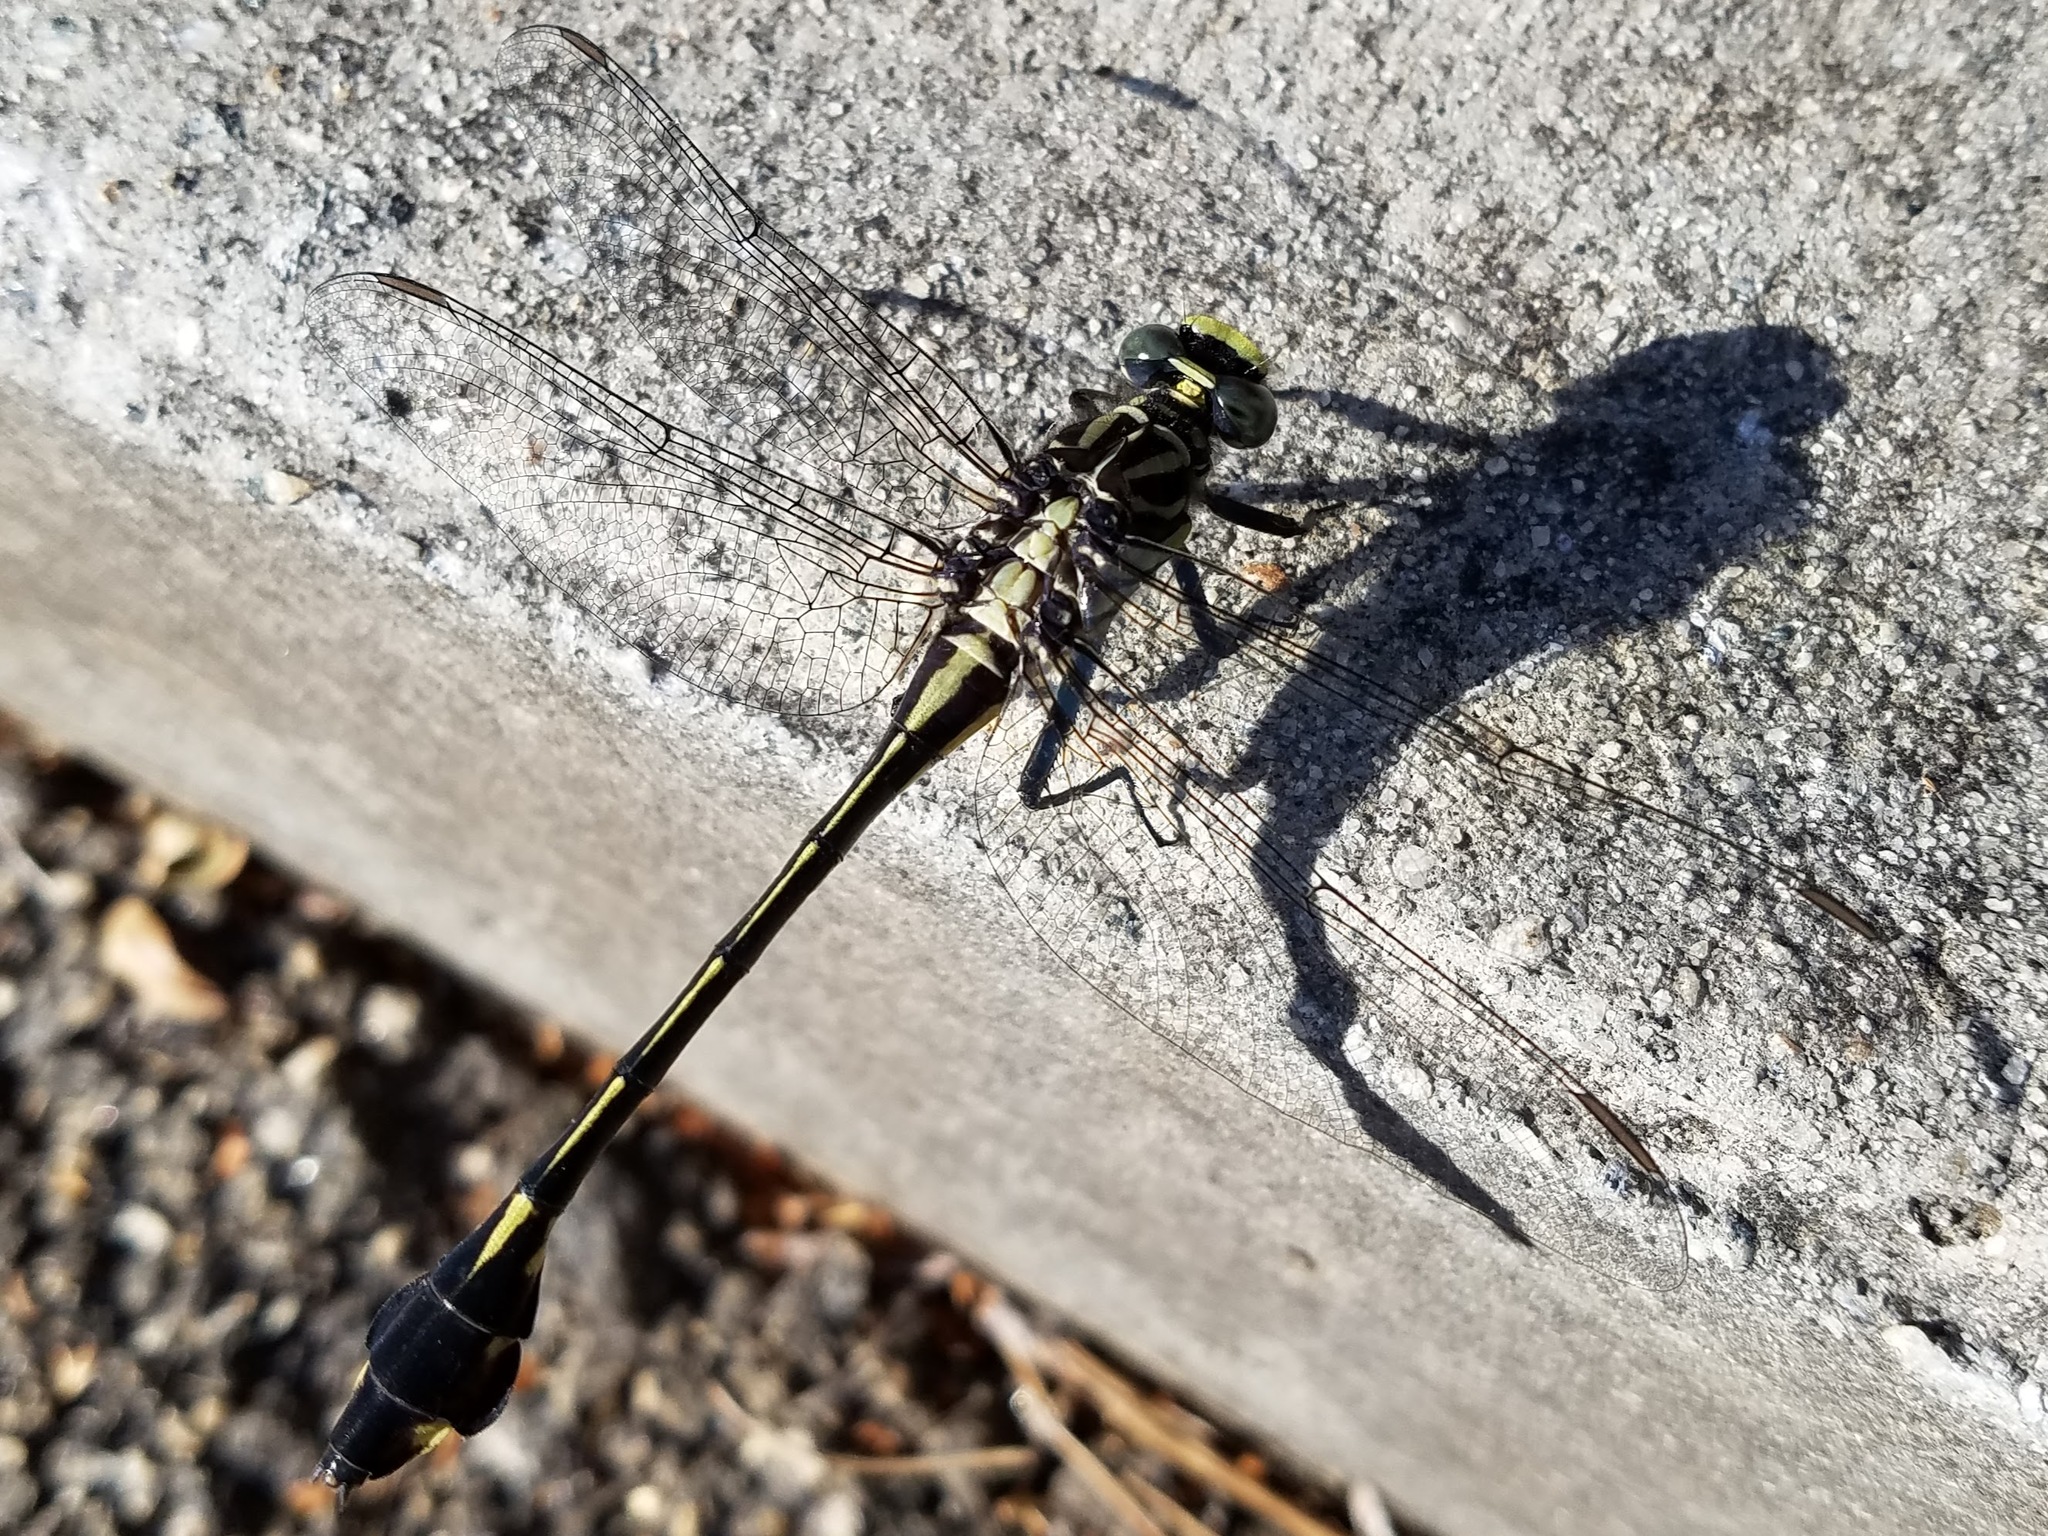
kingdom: Animalia
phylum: Arthropoda
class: Insecta
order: Odonata
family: Gomphidae
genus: Gomphurus
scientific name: Gomphurus dilatatus
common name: Blackwater clubtail
